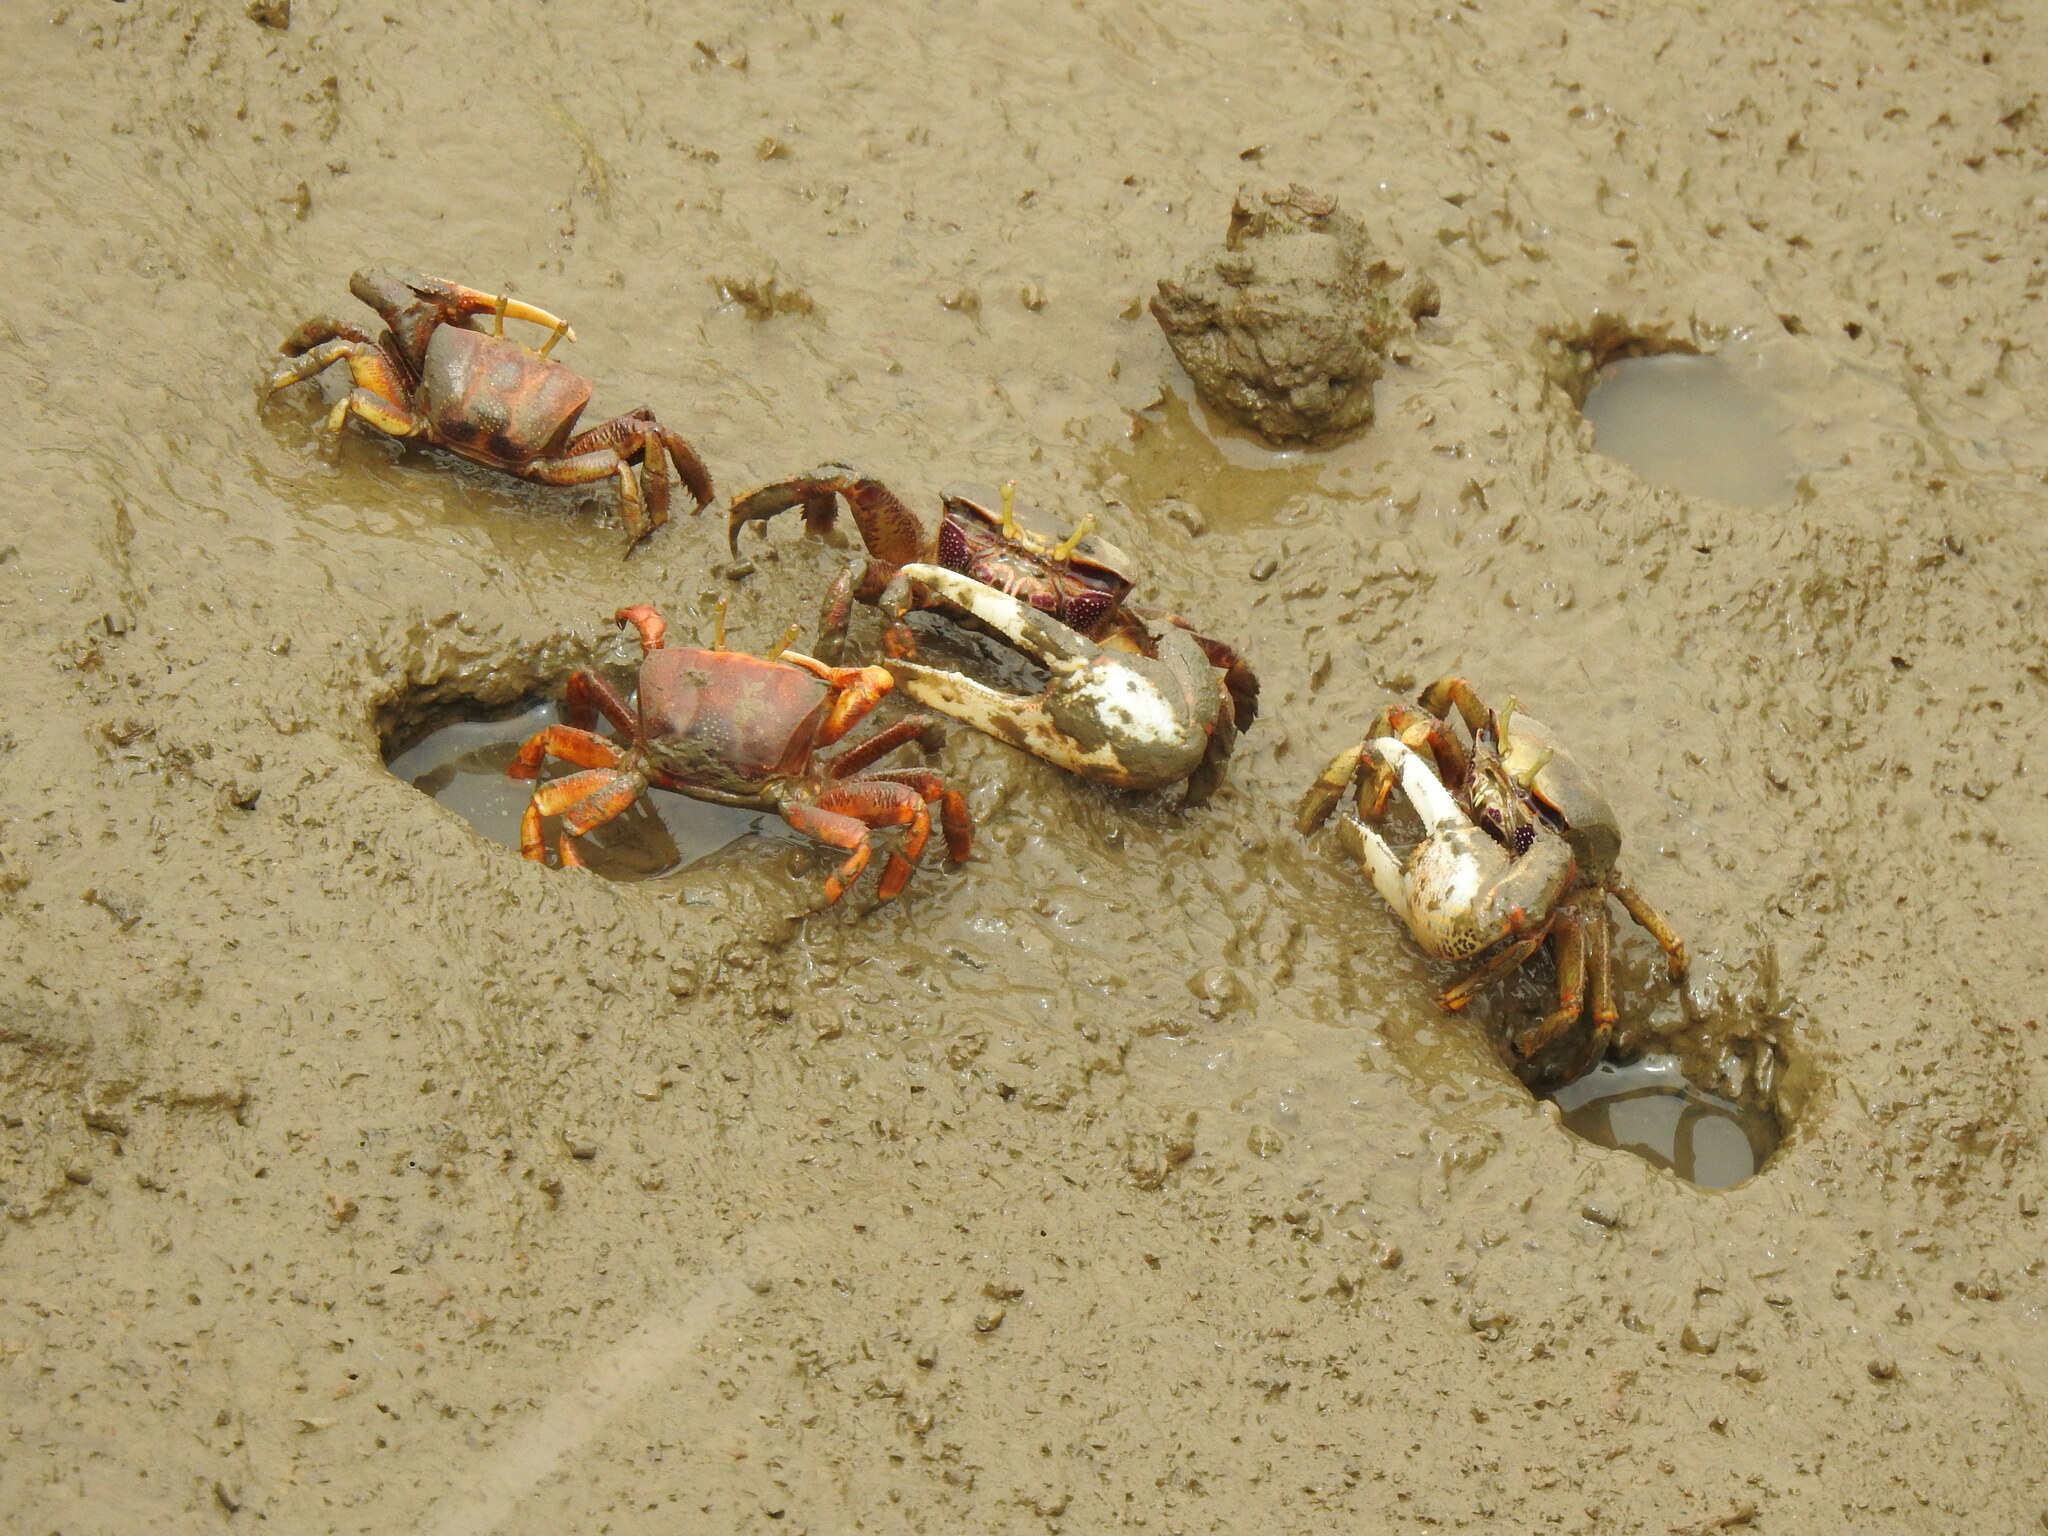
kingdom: Animalia
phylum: Arthropoda
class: Malacostraca
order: Decapoda
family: Ocypodidae
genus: Afruca
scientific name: Afruca tangeri
